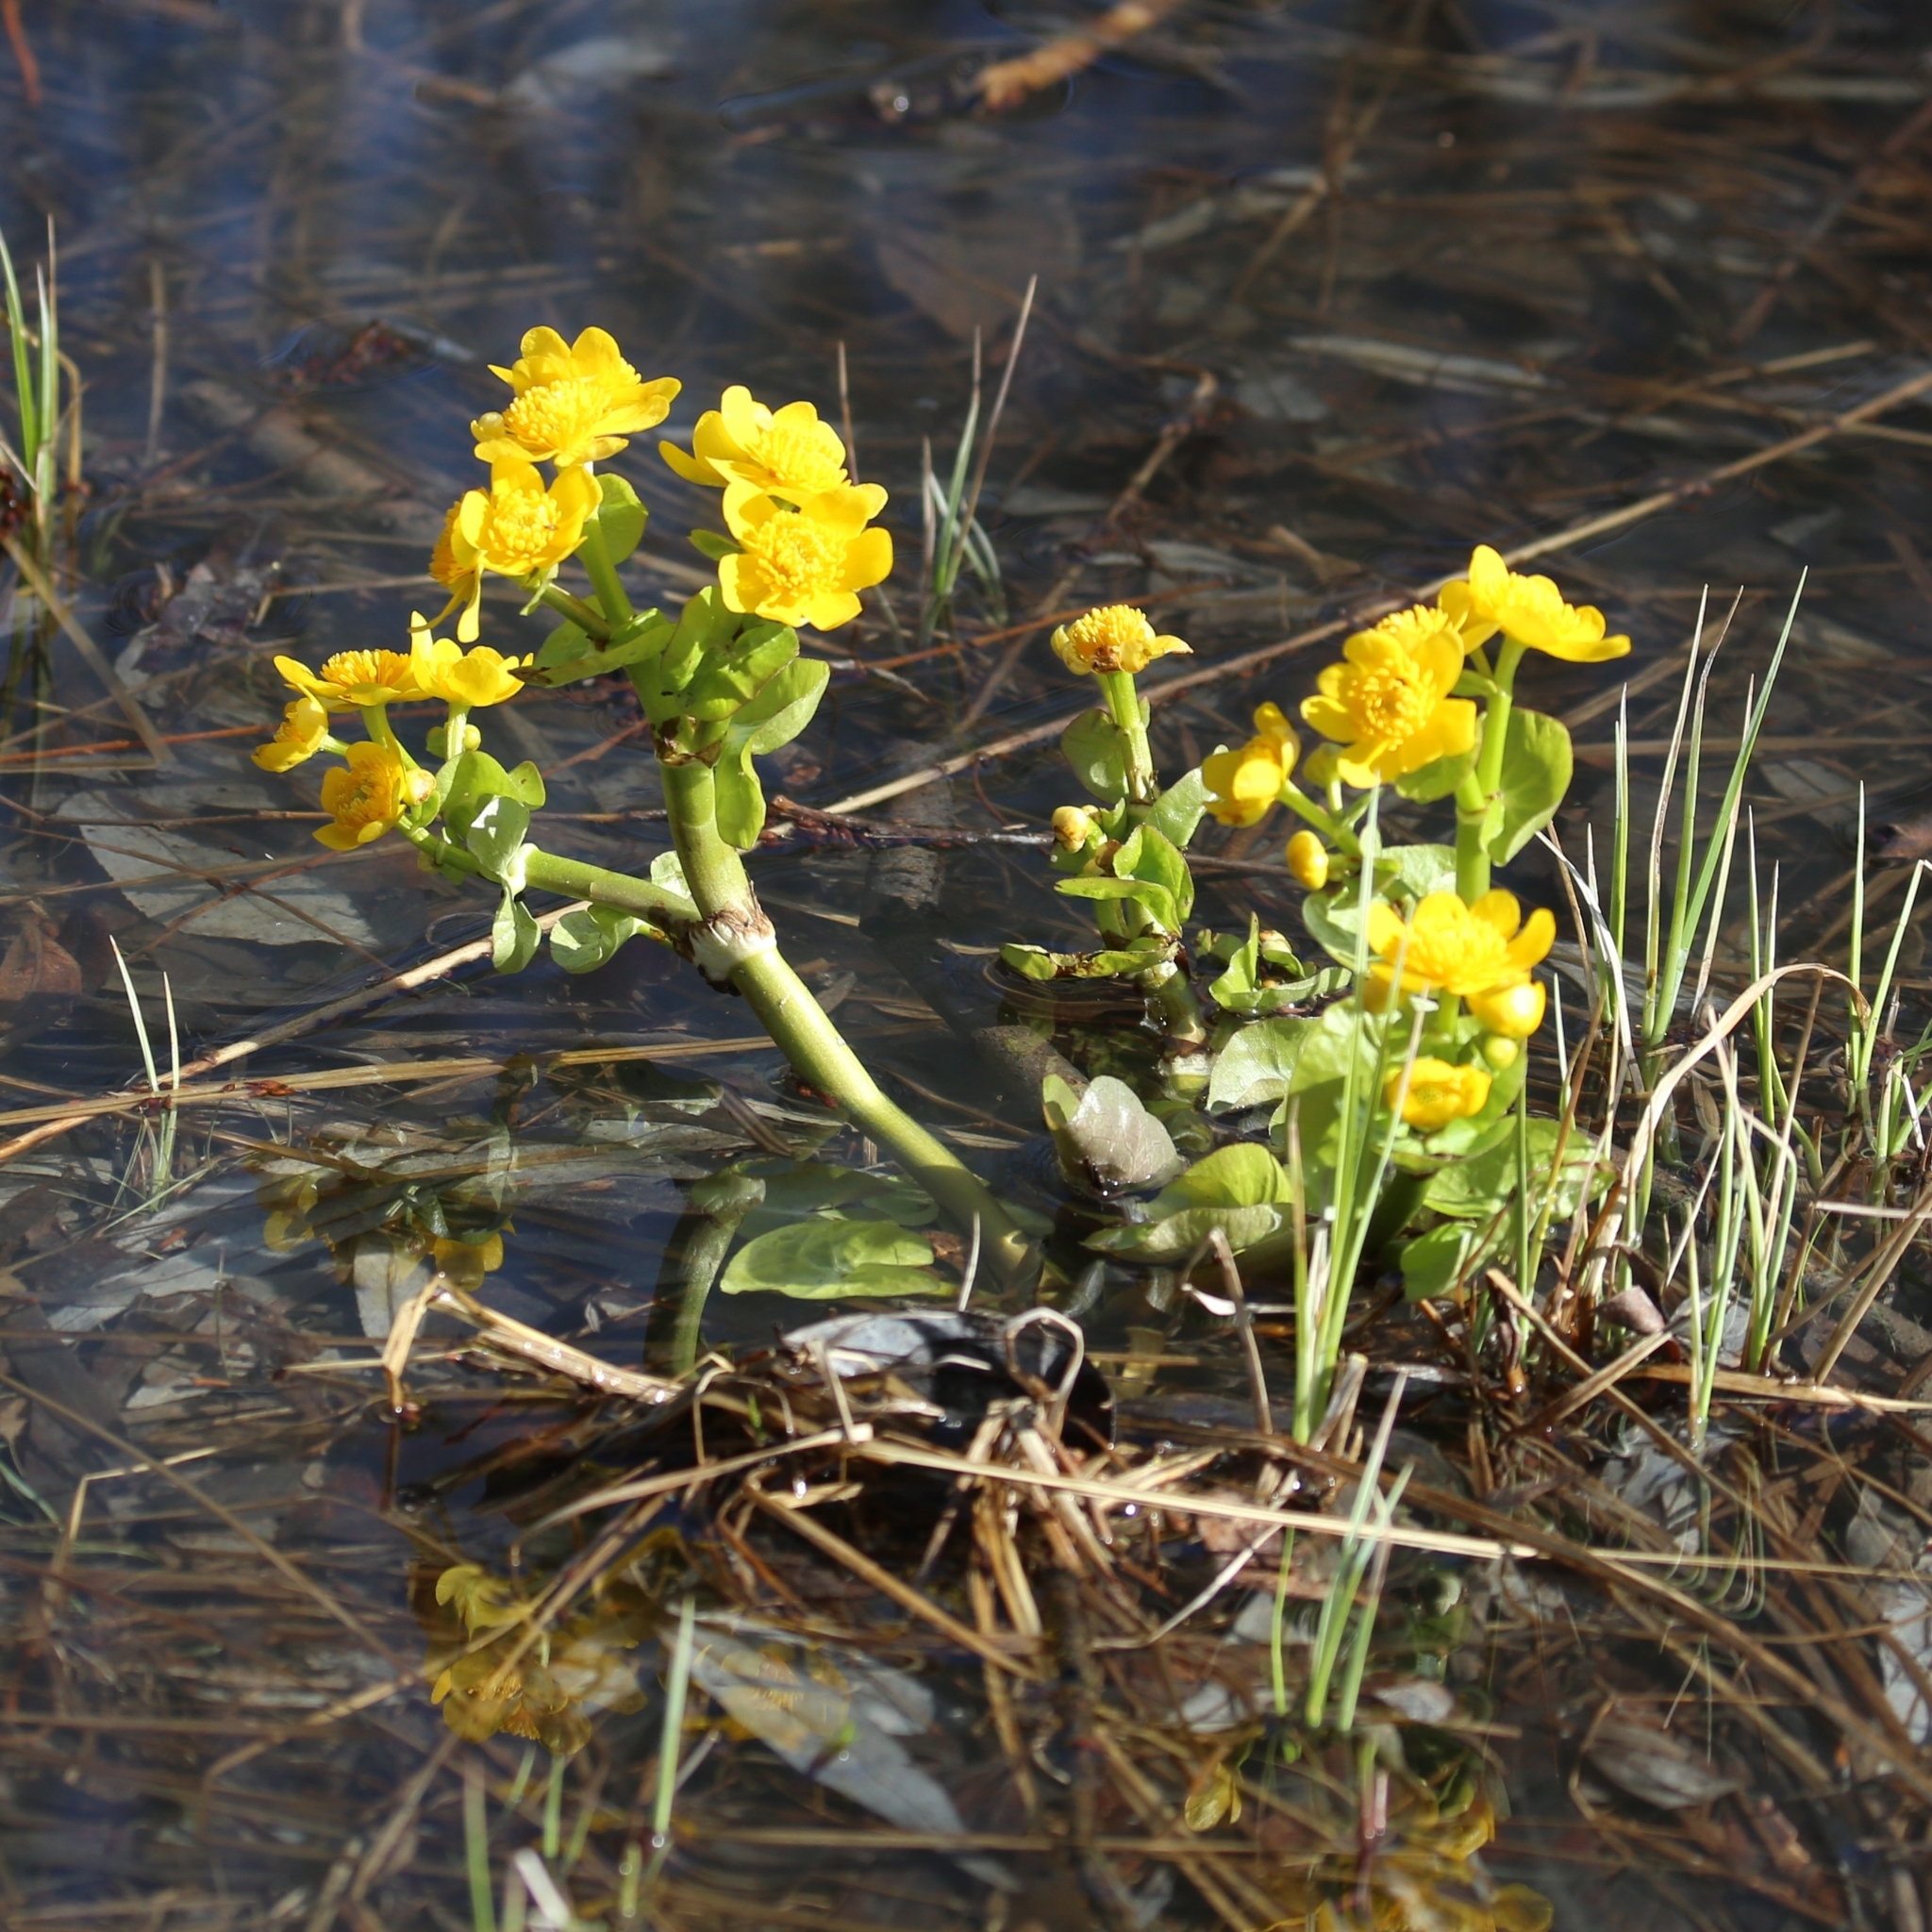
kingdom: Plantae
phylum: Tracheophyta
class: Magnoliopsida
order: Ranunculales
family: Ranunculaceae
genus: Caltha
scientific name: Caltha palustris
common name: Marsh marigold
